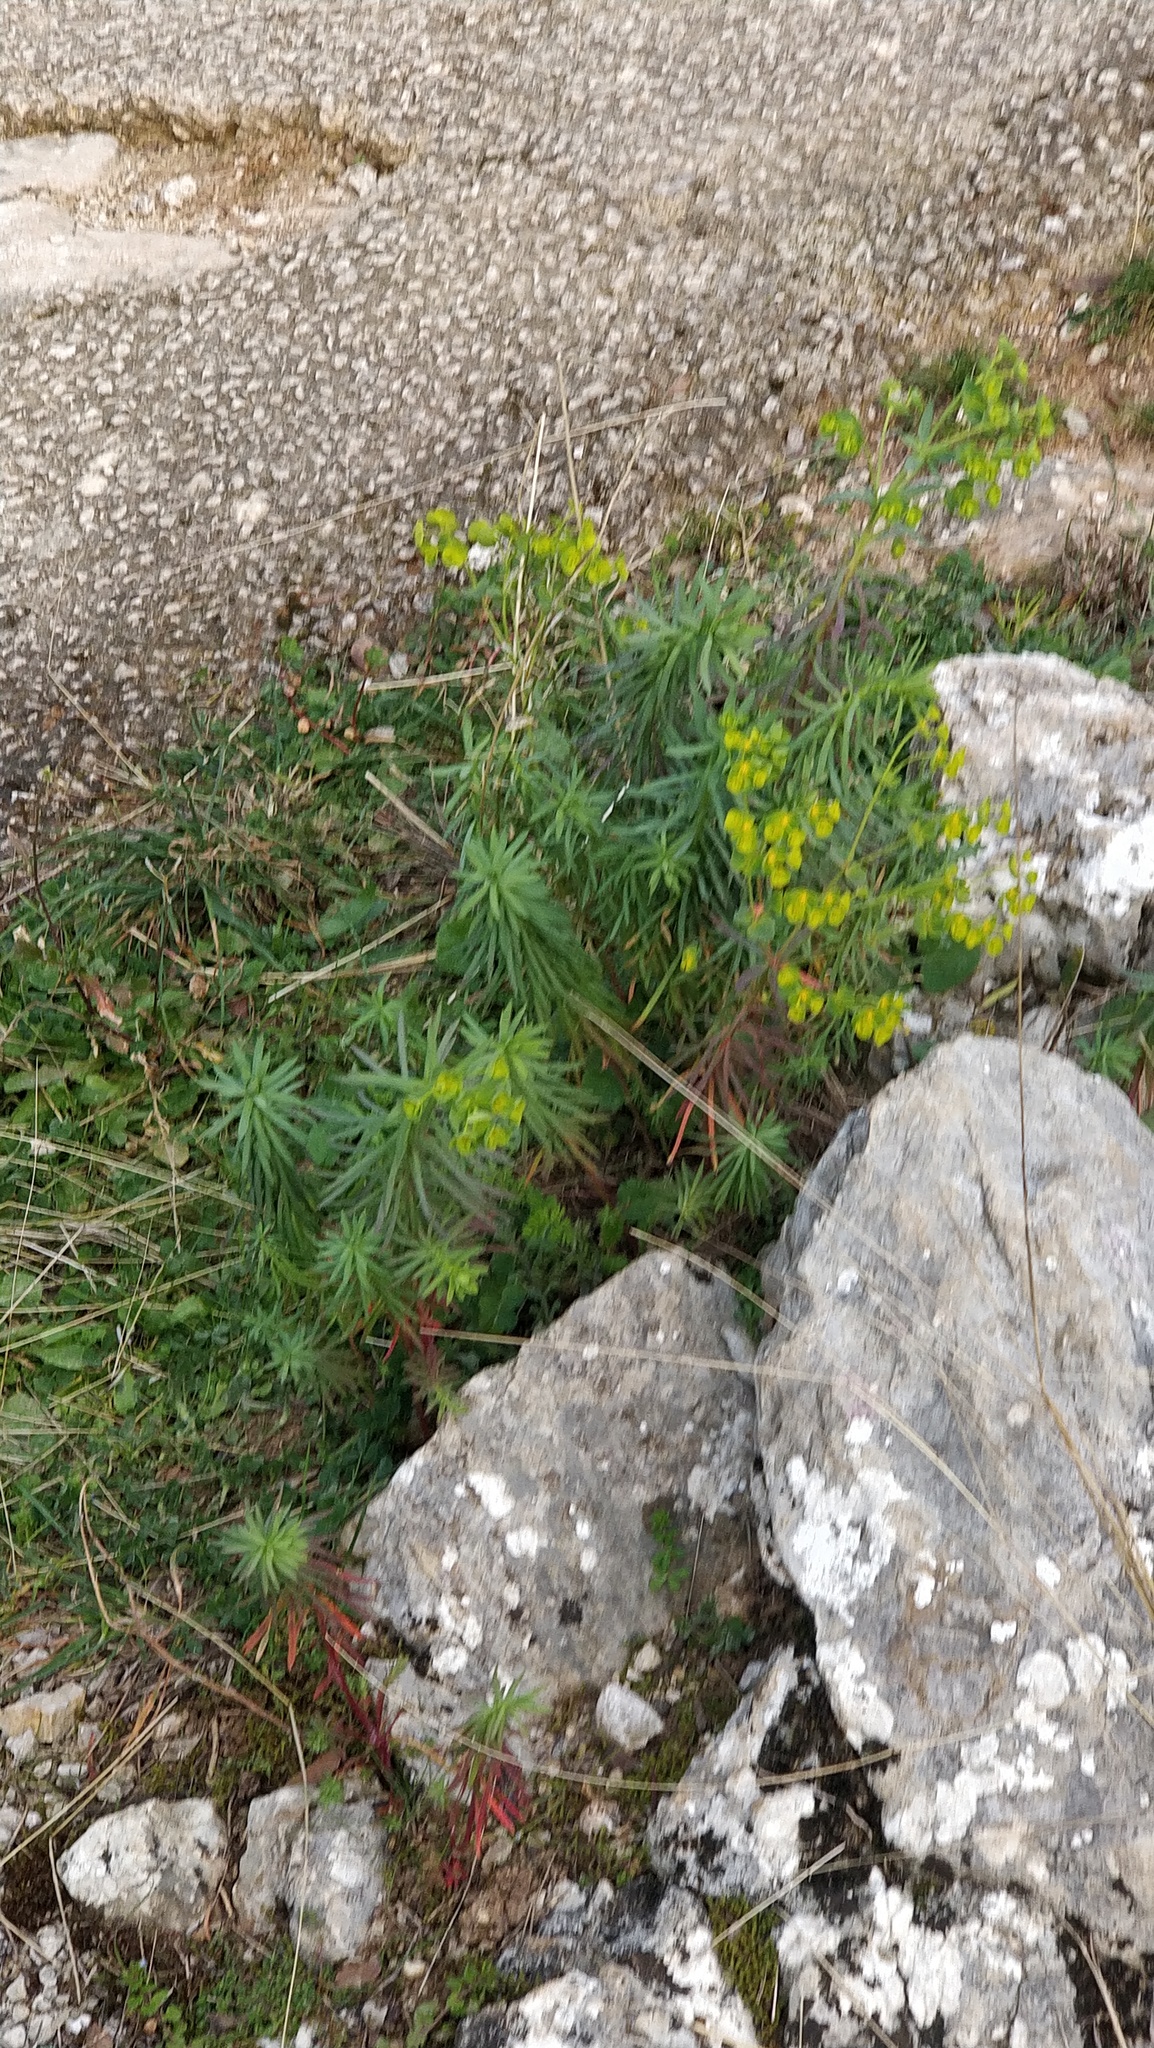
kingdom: Plantae
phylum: Tracheophyta
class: Magnoliopsida
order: Malpighiales
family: Euphorbiaceae
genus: Euphorbia
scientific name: Euphorbia segetalis
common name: Corn spurge
